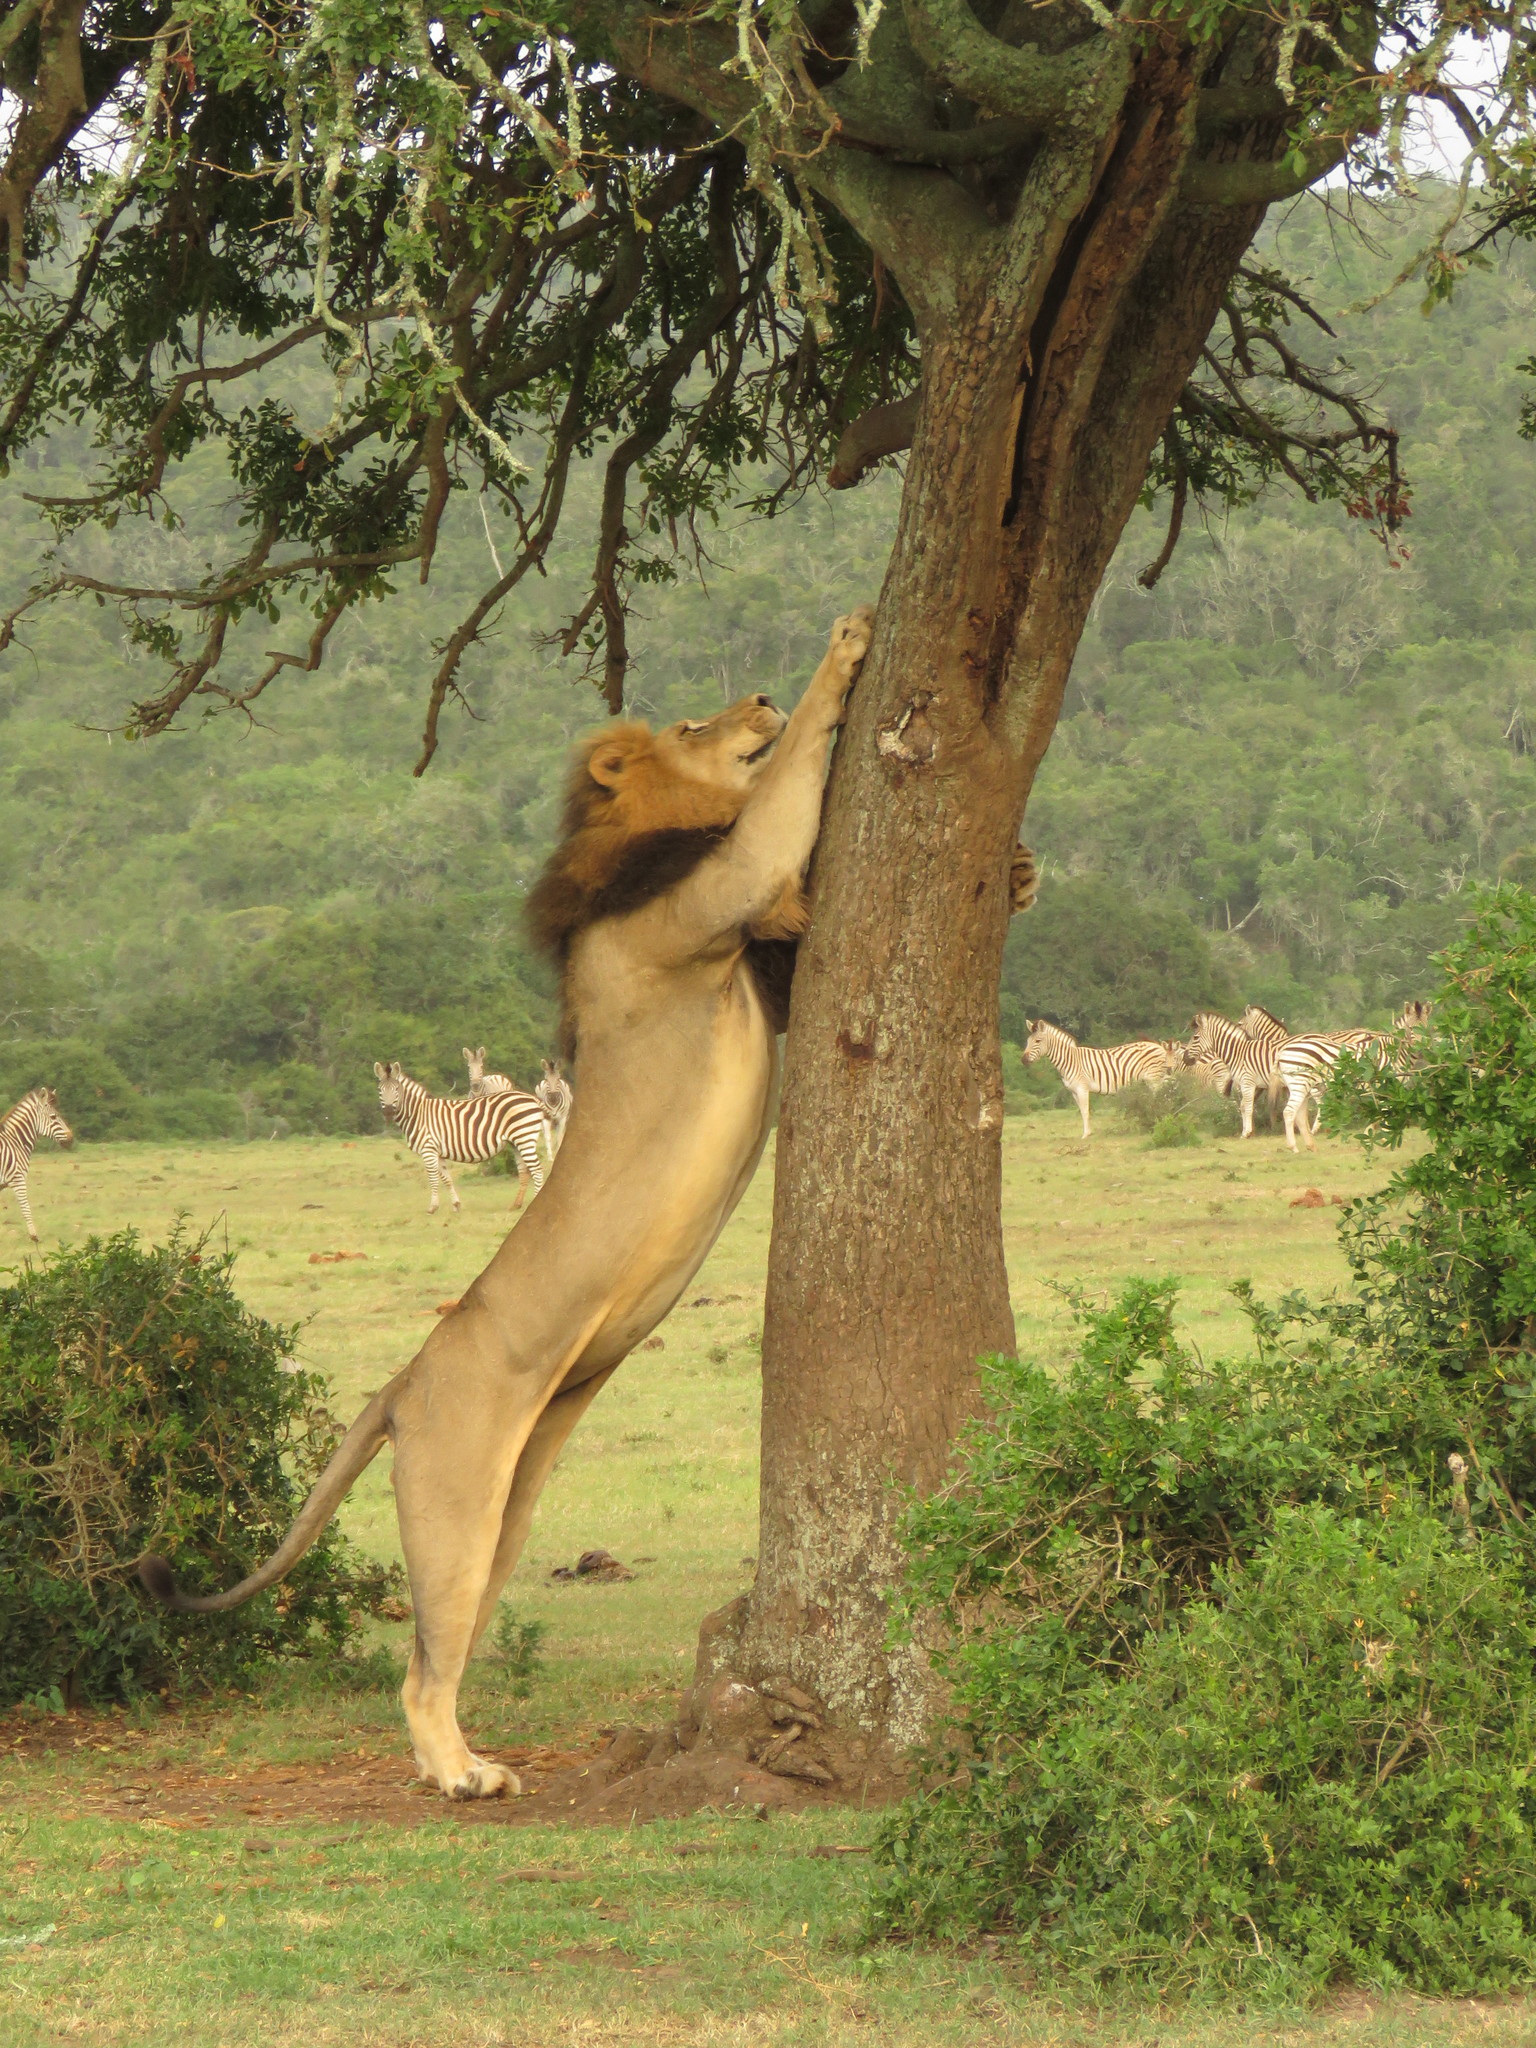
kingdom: Animalia
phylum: Chordata
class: Mammalia
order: Carnivora
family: Felidae
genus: Panthera
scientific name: Panthera leo
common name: Lion
